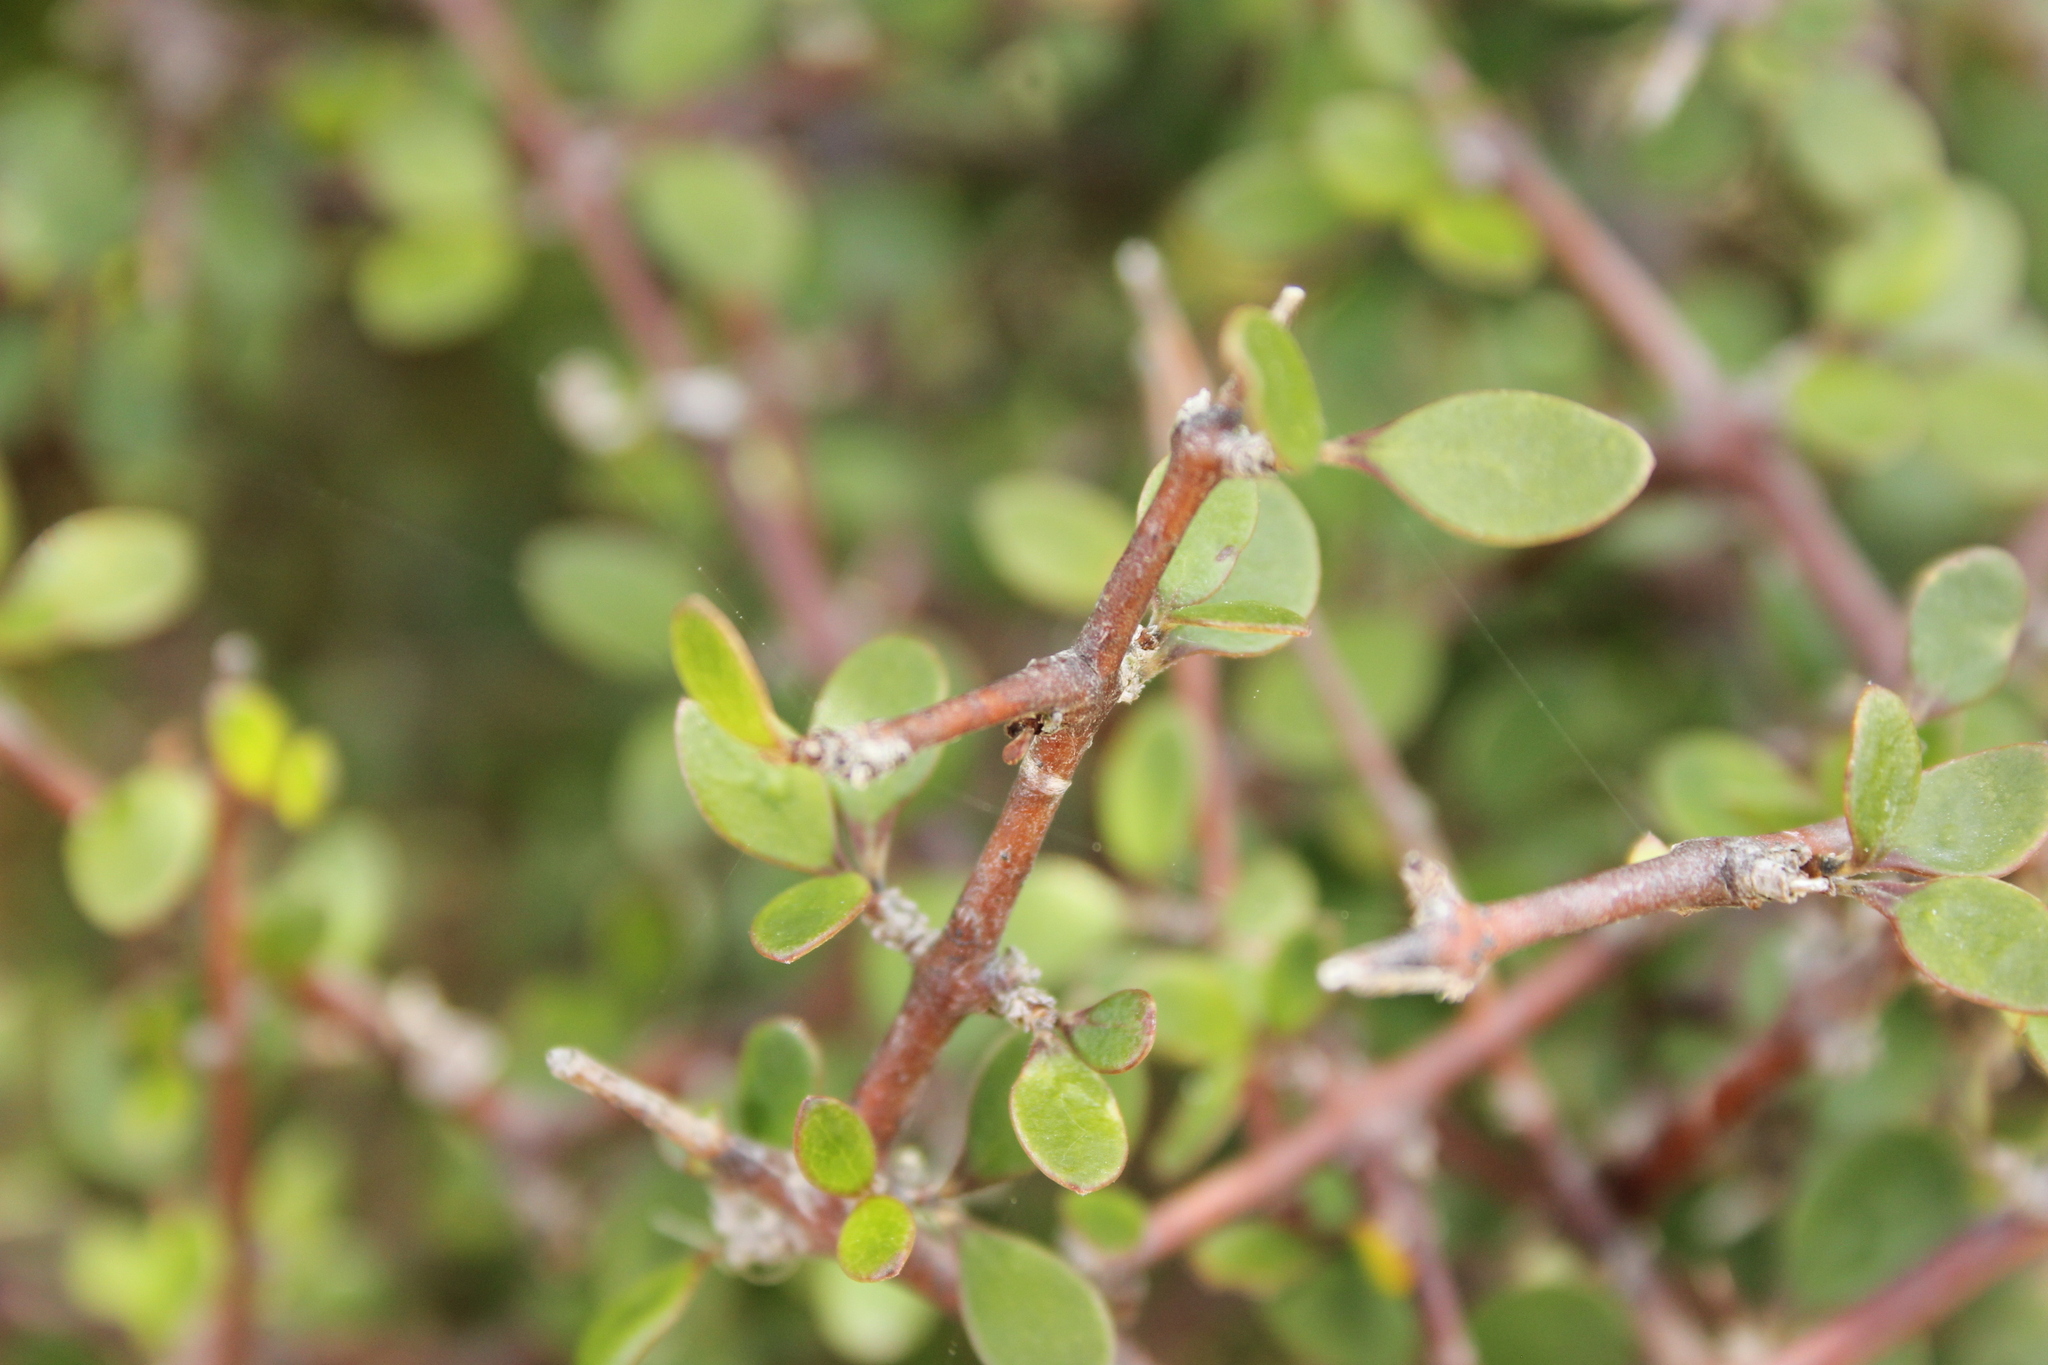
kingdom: Plantae
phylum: Tracheophyta
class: Magnoliopsida
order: Gentianales
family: Rubiaceae
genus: Coprosma
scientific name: Coprosma crassifolia
